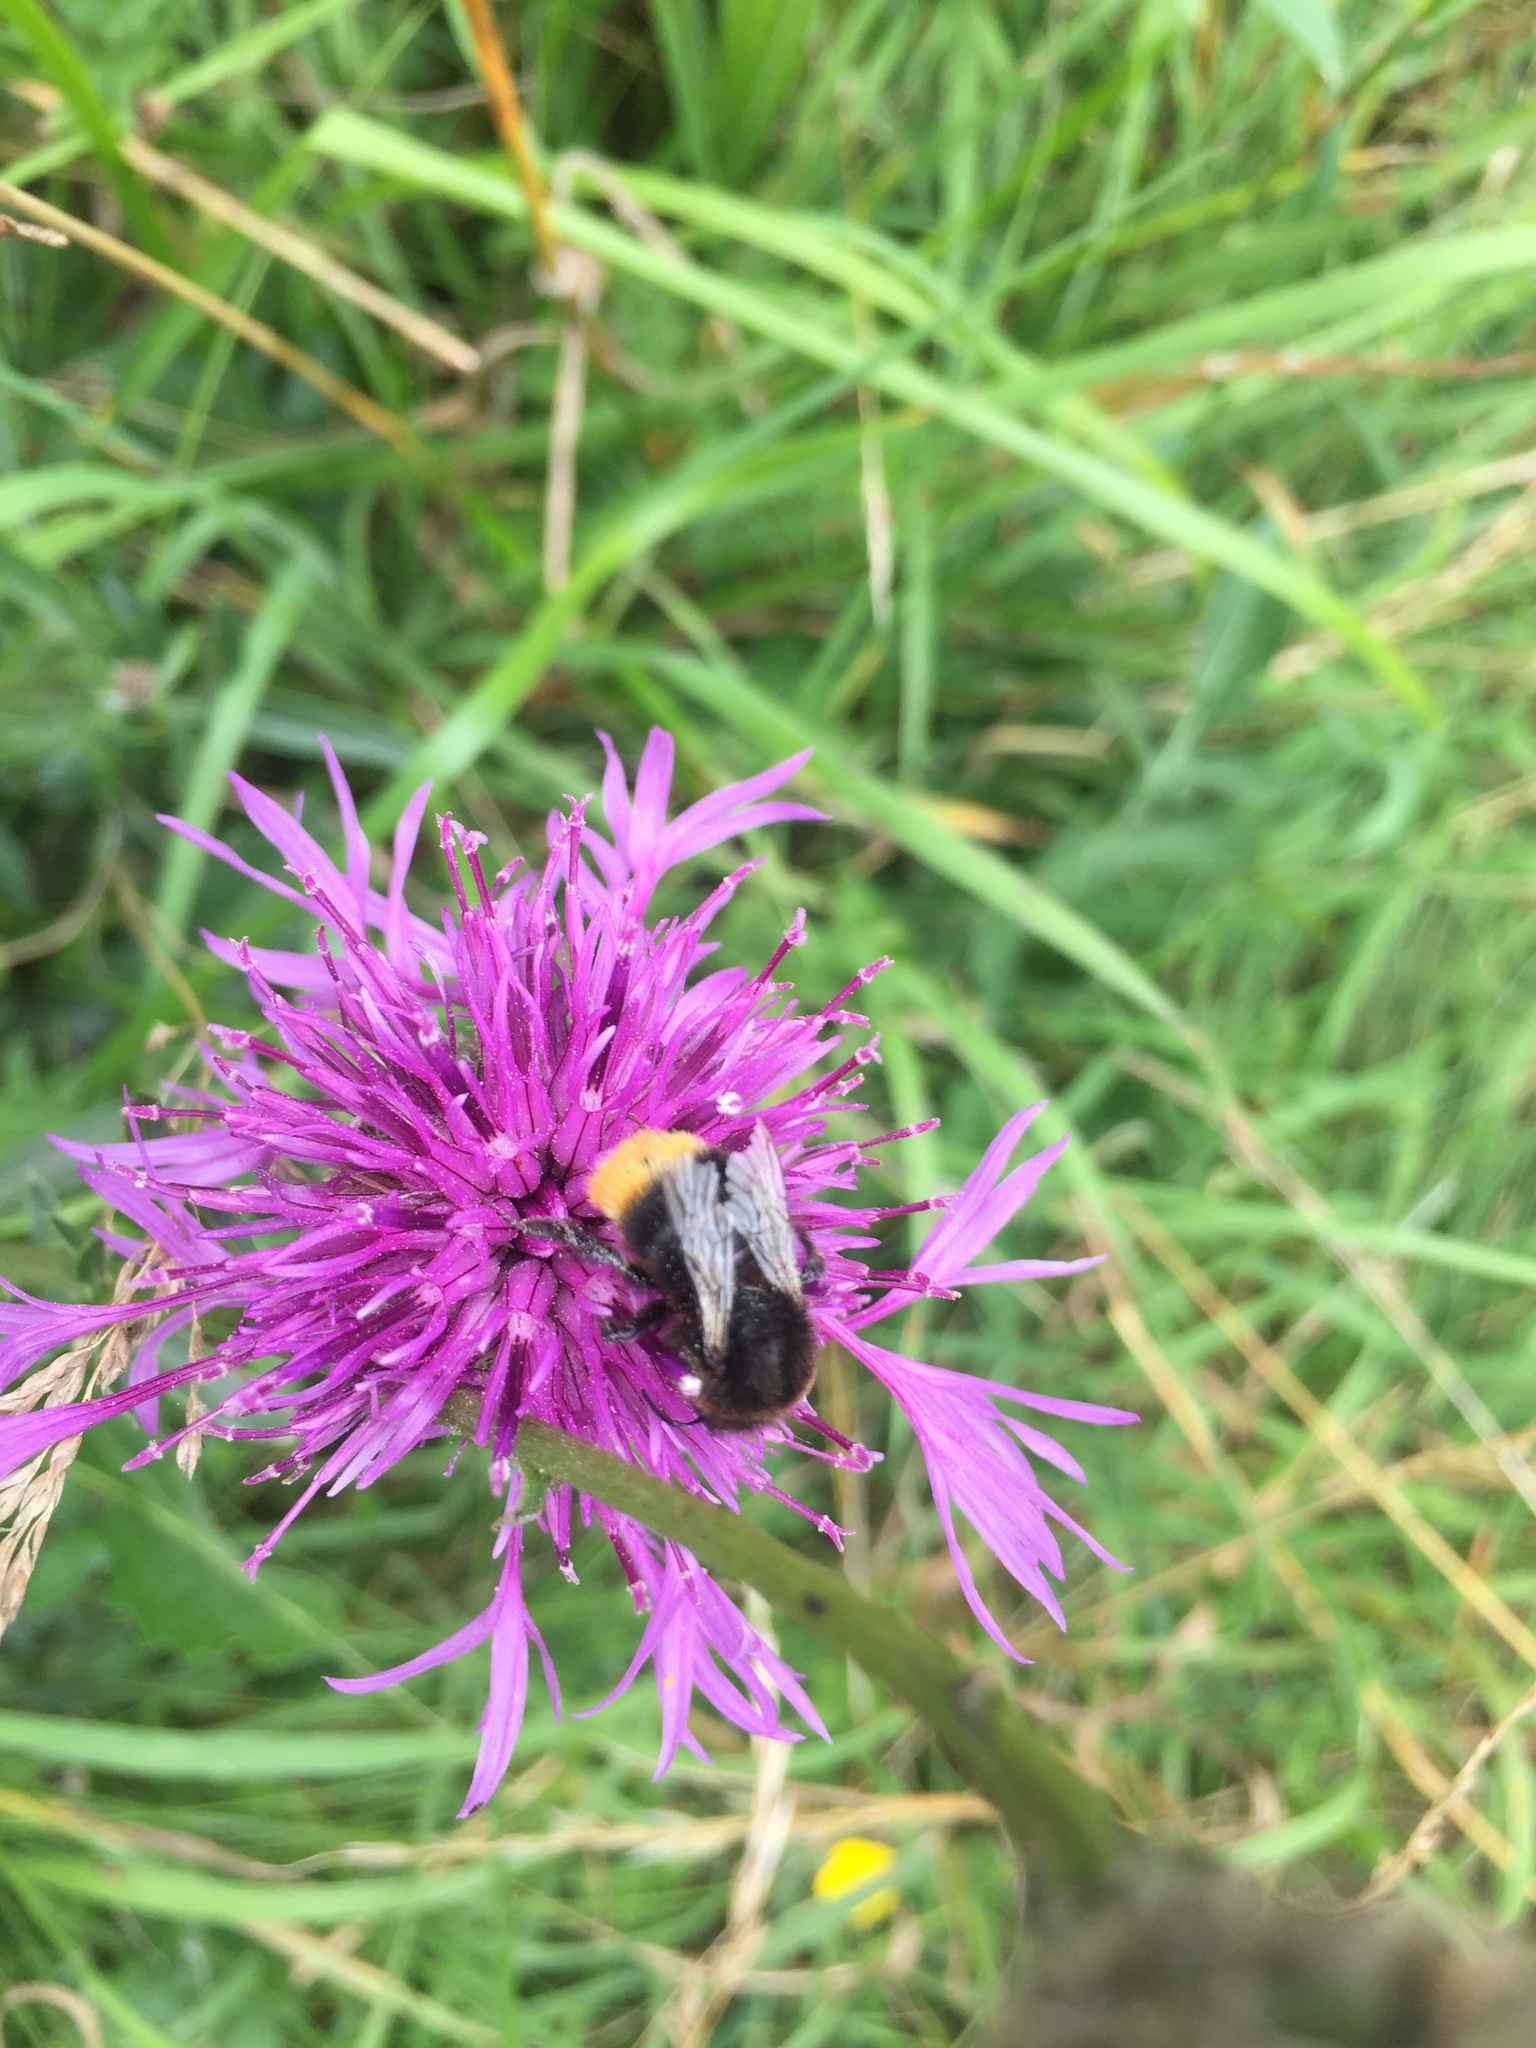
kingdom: Plantae
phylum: Tracheophyta
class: Magnoliopsida
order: Asterales
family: Asteraceae
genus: Centaurea
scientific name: Centaurea scabiosa
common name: Greater knapweed
